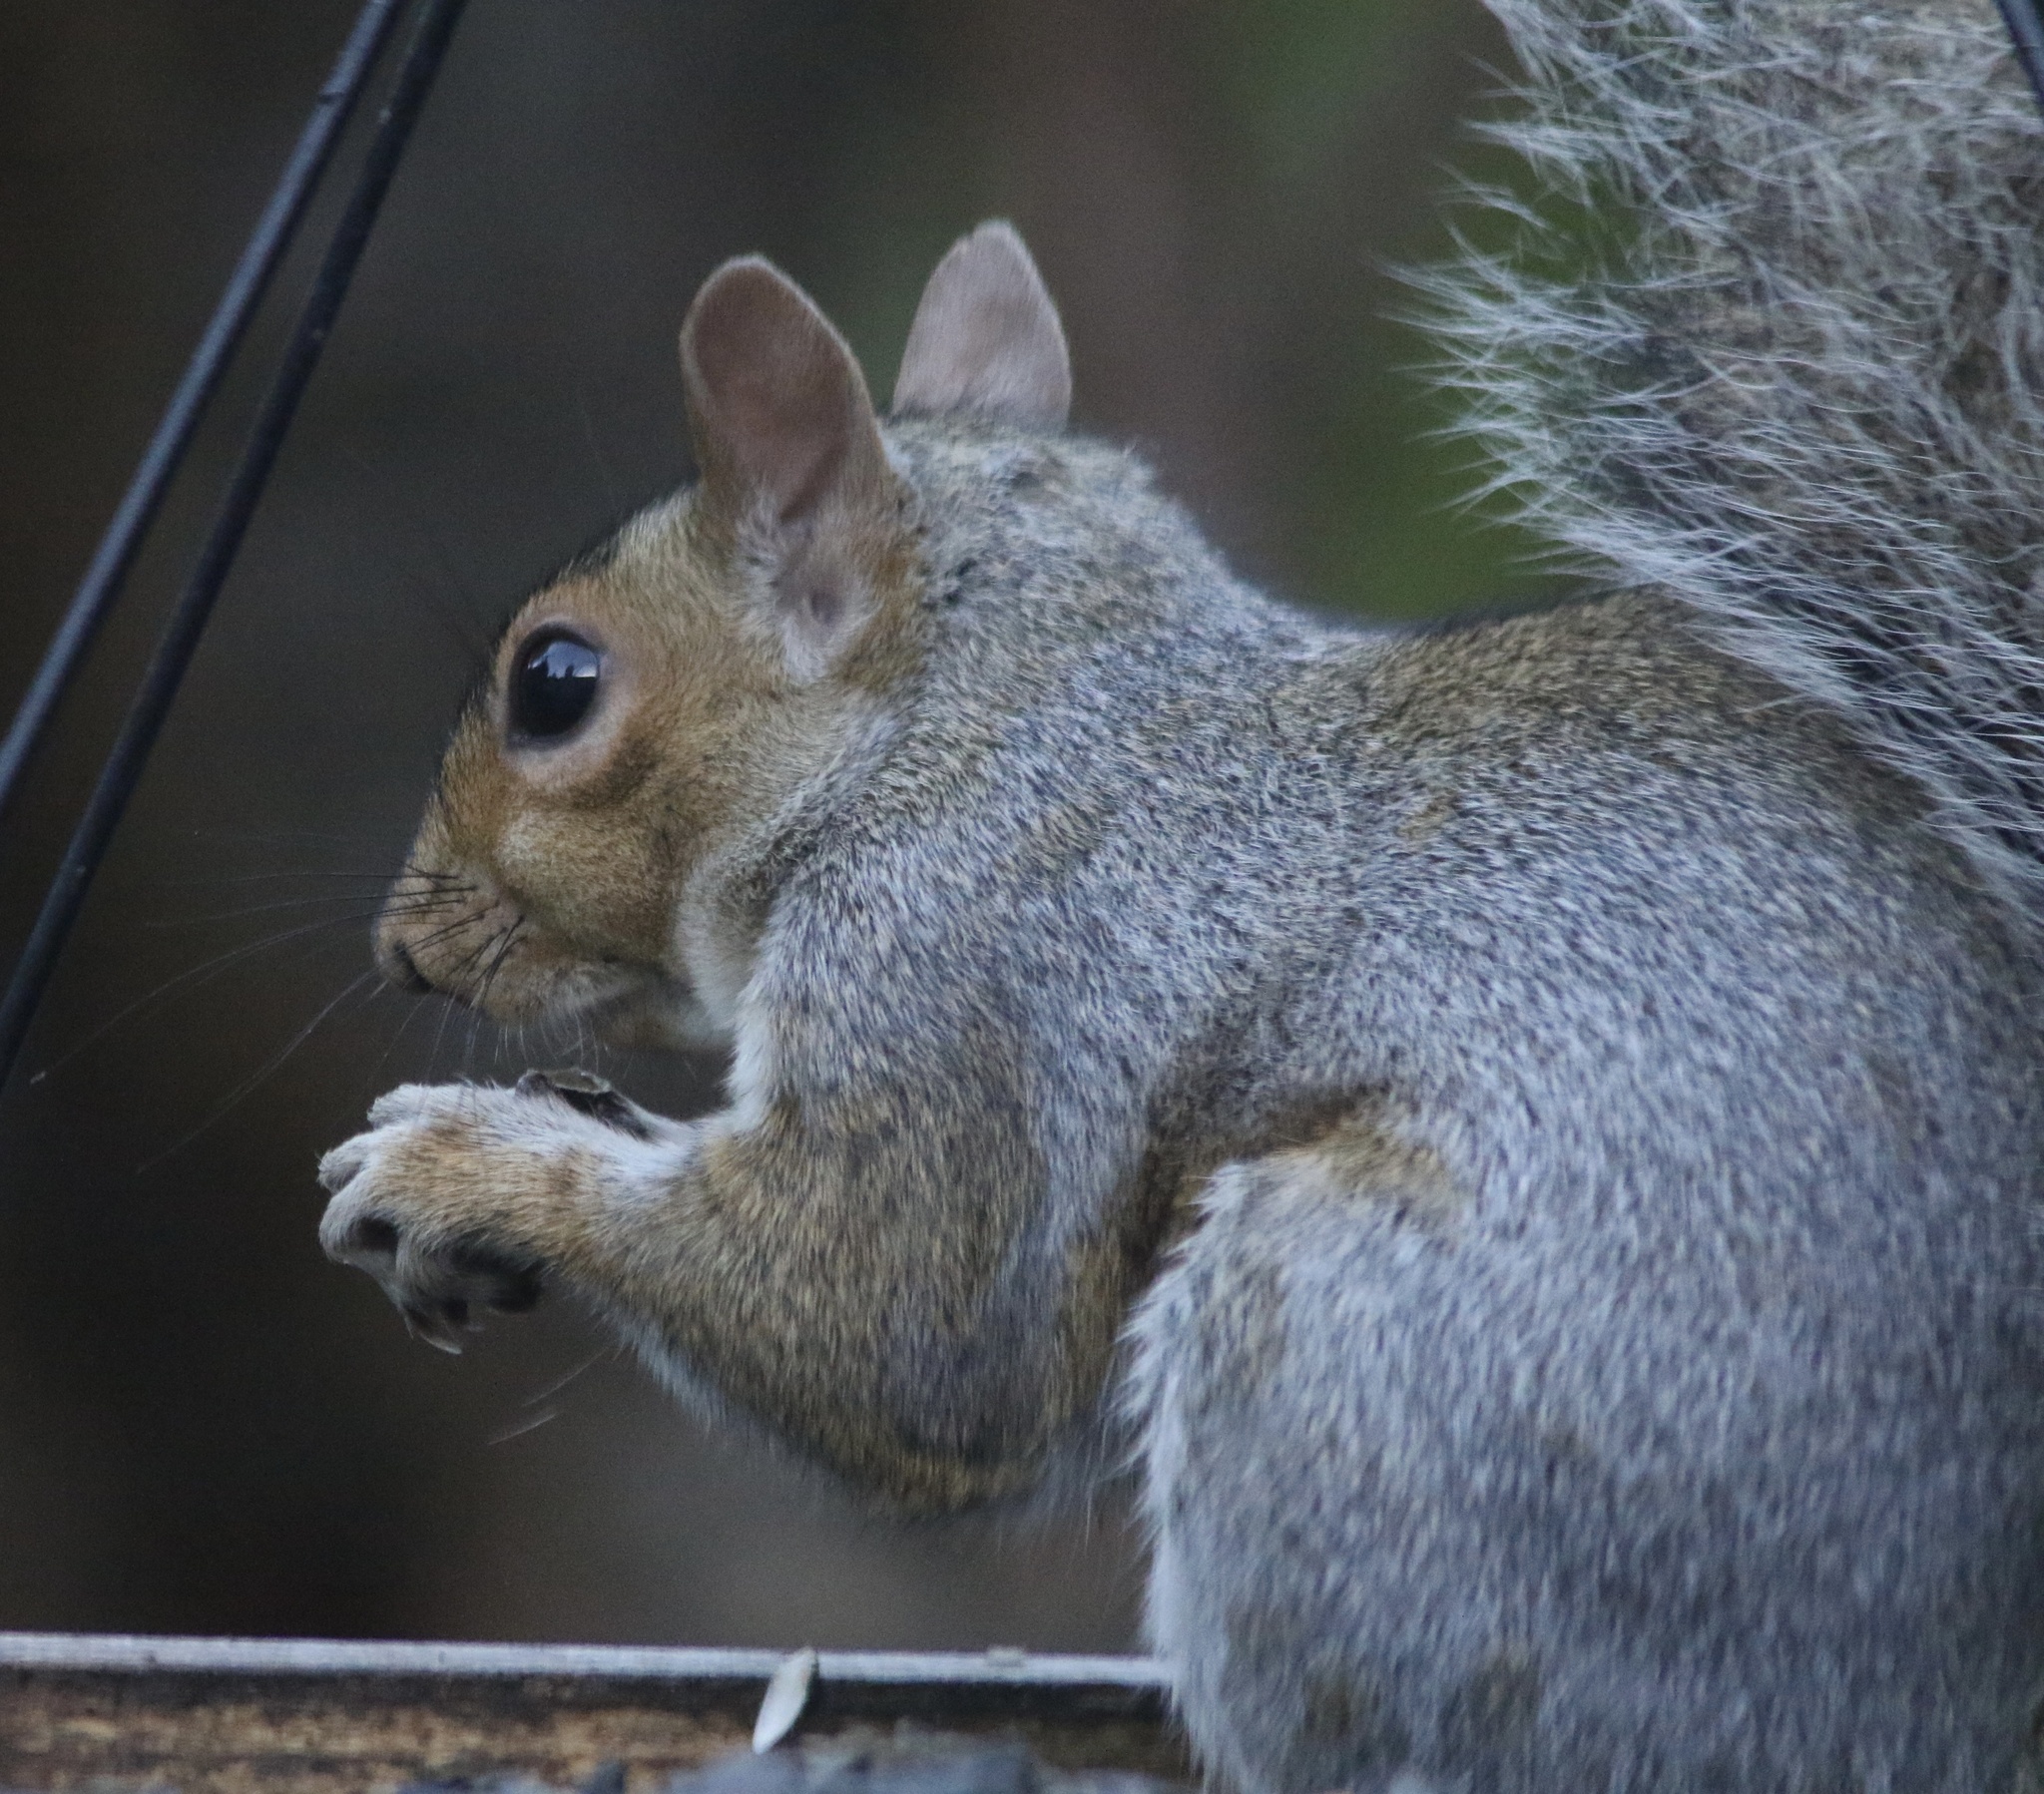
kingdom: Animalia
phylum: Chordata
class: Mammalia
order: Rodentia
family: Sciuridae
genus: Sciurus
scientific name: Sciurus carolinensis
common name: Eastern gray squirrel
